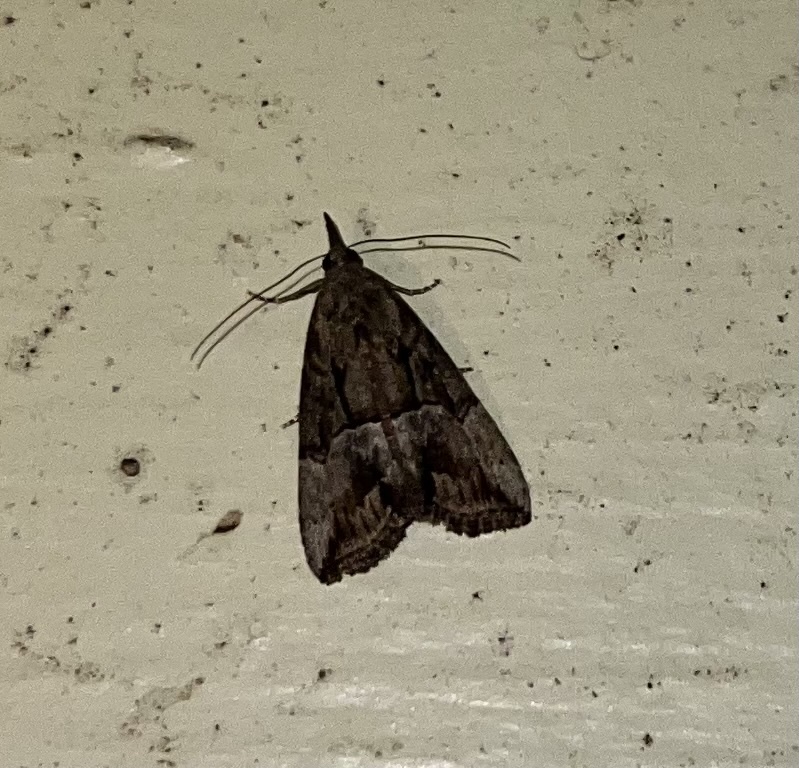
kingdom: Animalia
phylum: Arthropoda
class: Insecta
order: Lepidoptera
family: Erebidae
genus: Hypena
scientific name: Hypena scabra
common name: Green cloverworm
